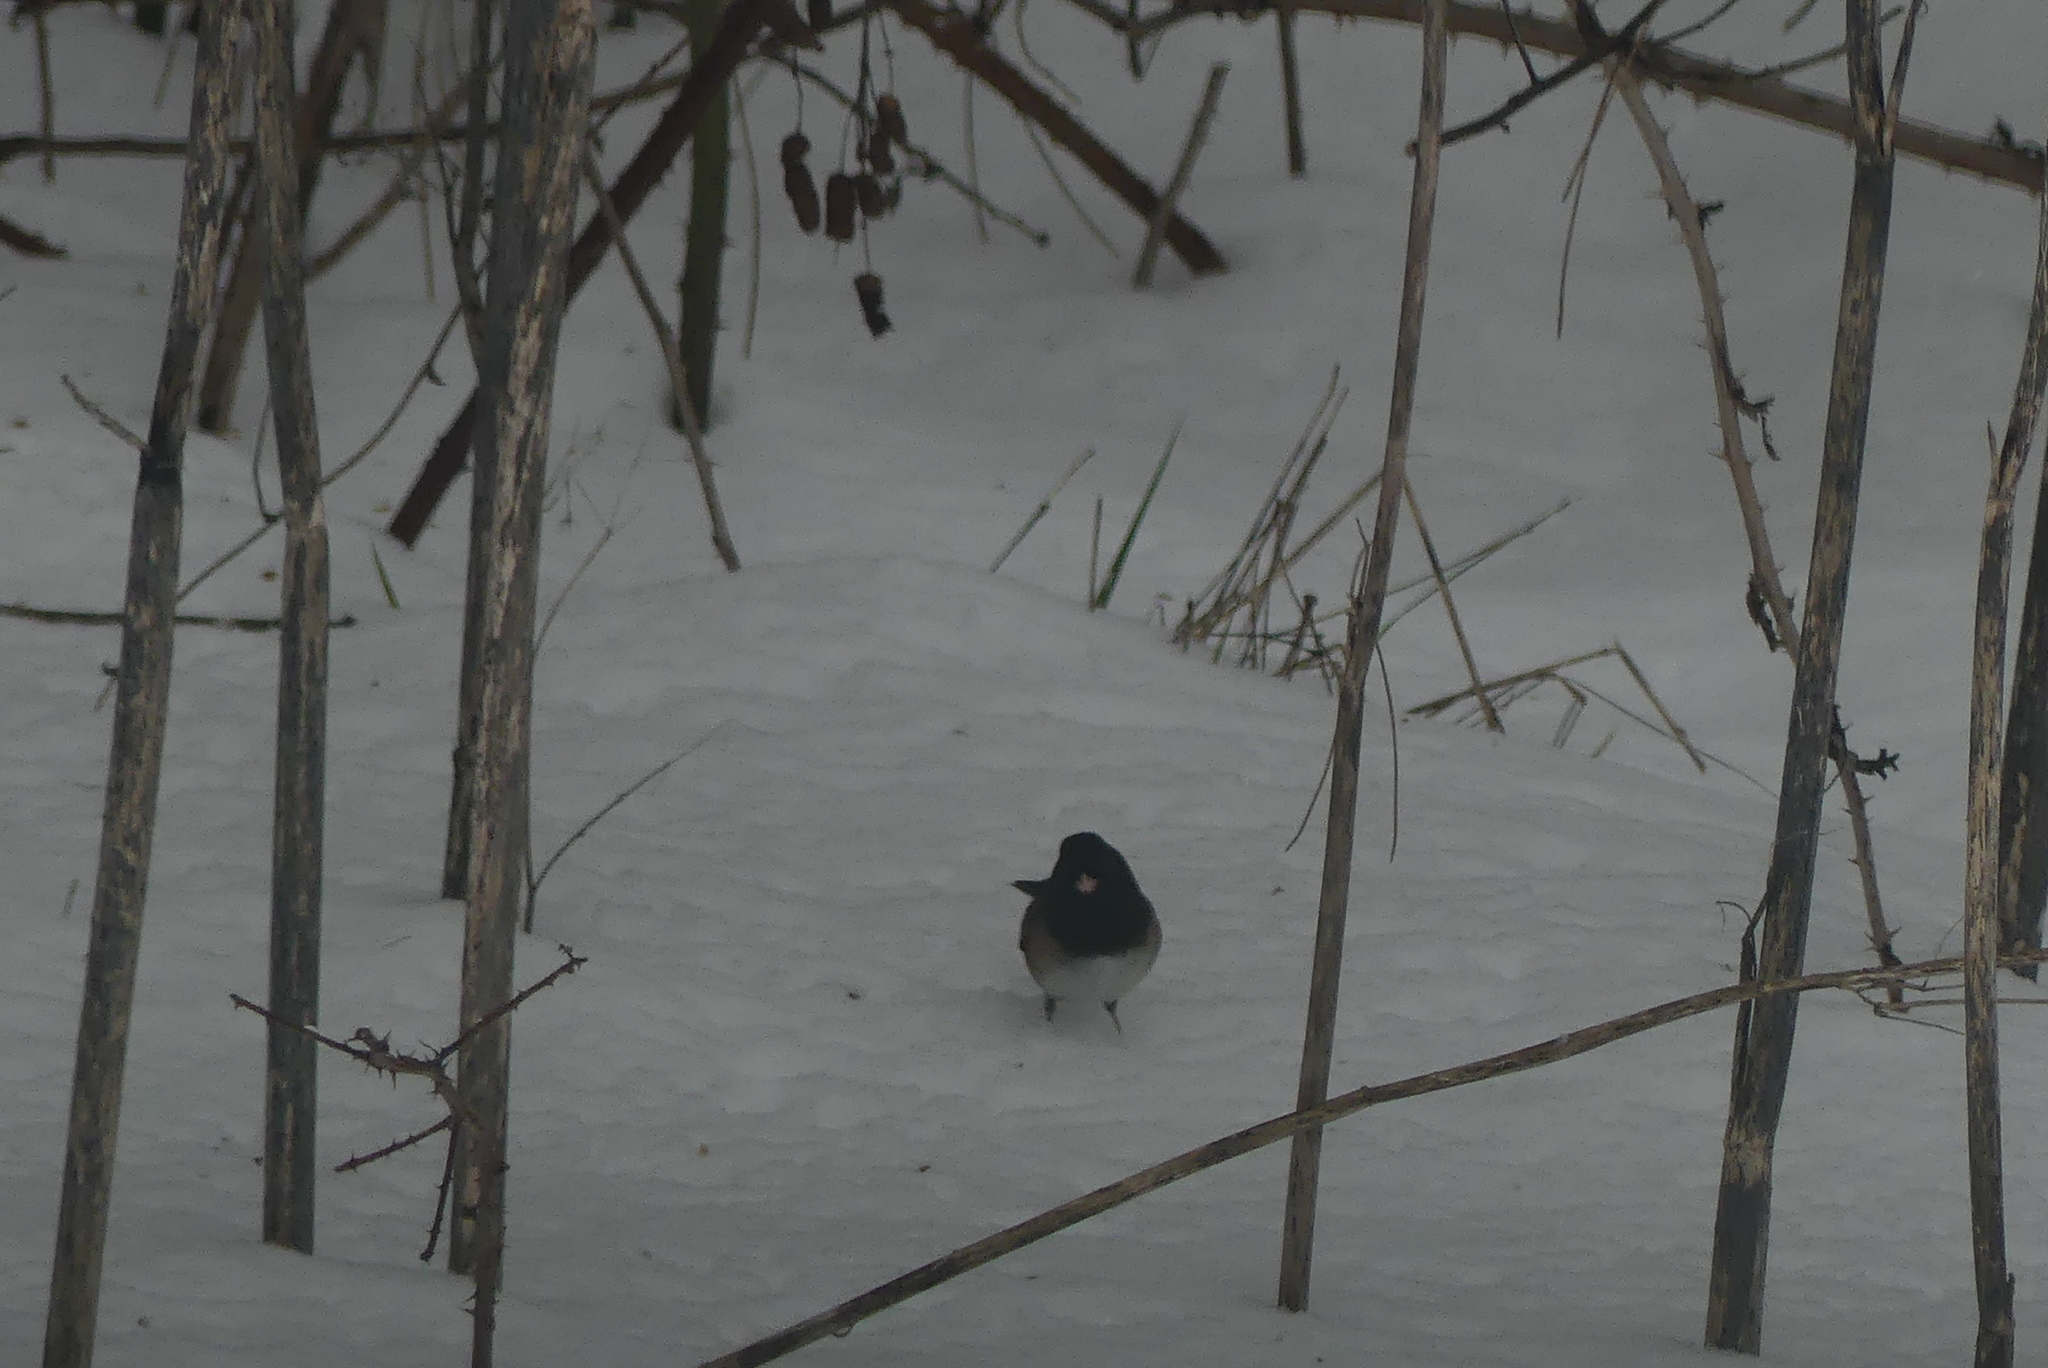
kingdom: Animalia
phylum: Chordata
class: Aves
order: Passeriformes
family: Passerellidae
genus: Junco
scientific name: Junco hyemalis
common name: Dark-eyed junco
